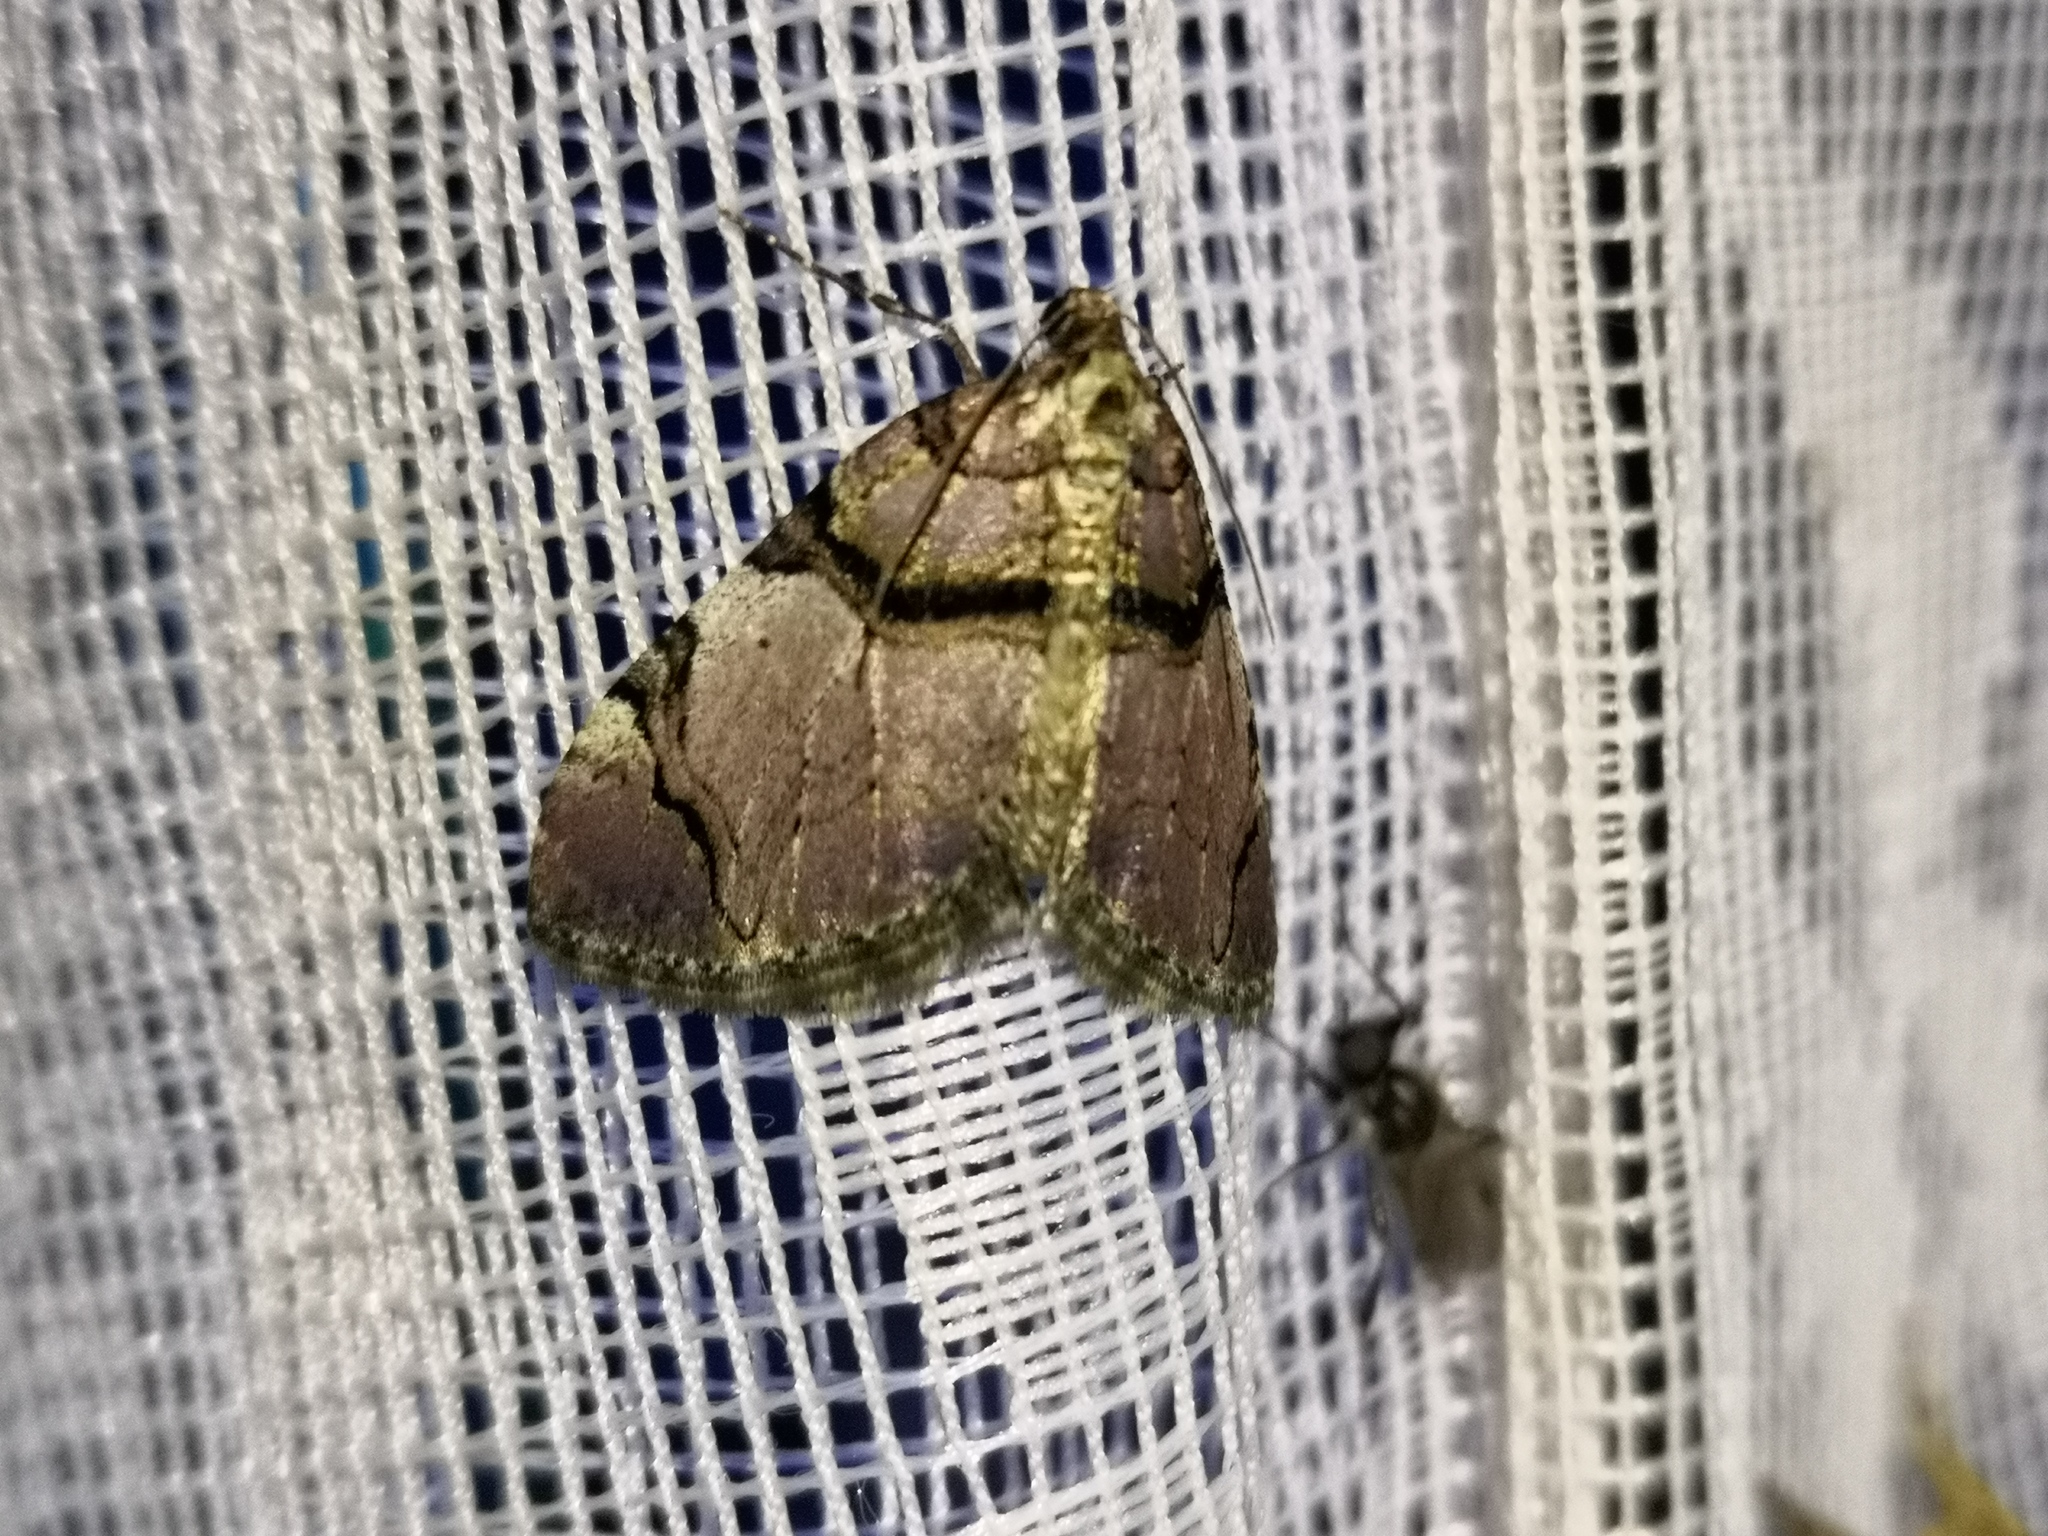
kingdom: Animalia
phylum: Arthropoda
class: Insecta
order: Lepidoptera
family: Geometridae
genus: Anticlea
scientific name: Anticlea derivata
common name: Streamer
